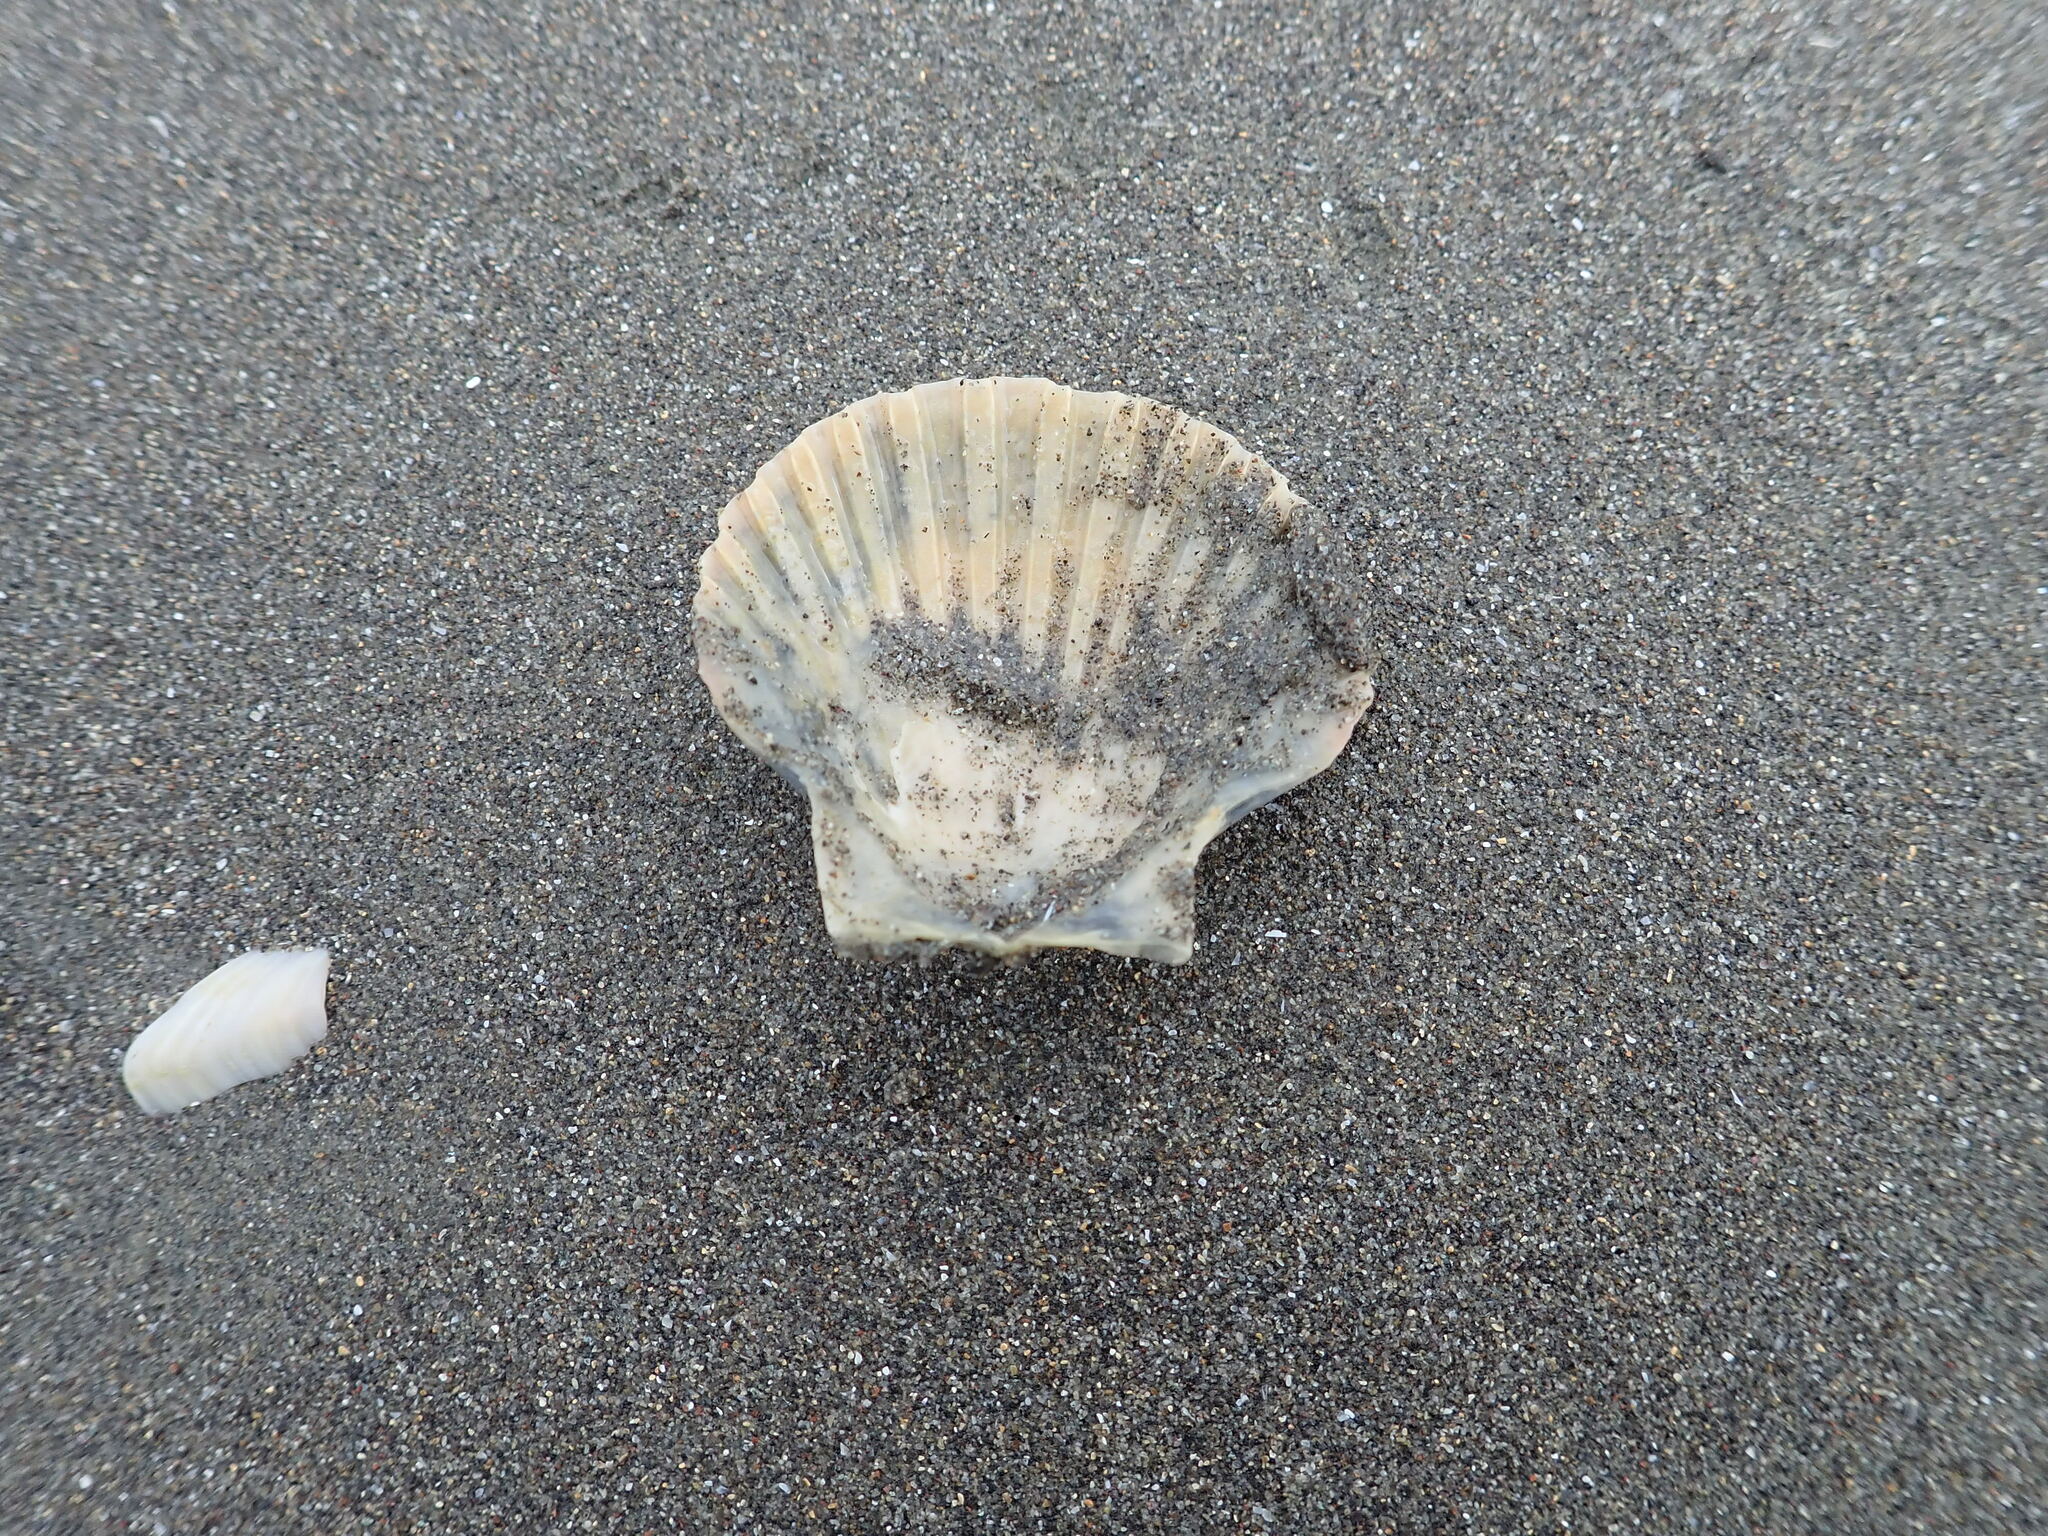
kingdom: Animalia
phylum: Mollusca
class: Bivalvia
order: Pectinida
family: Pectinidae
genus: Pecten
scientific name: Pecten novaezelandiae
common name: New zealand scallop
